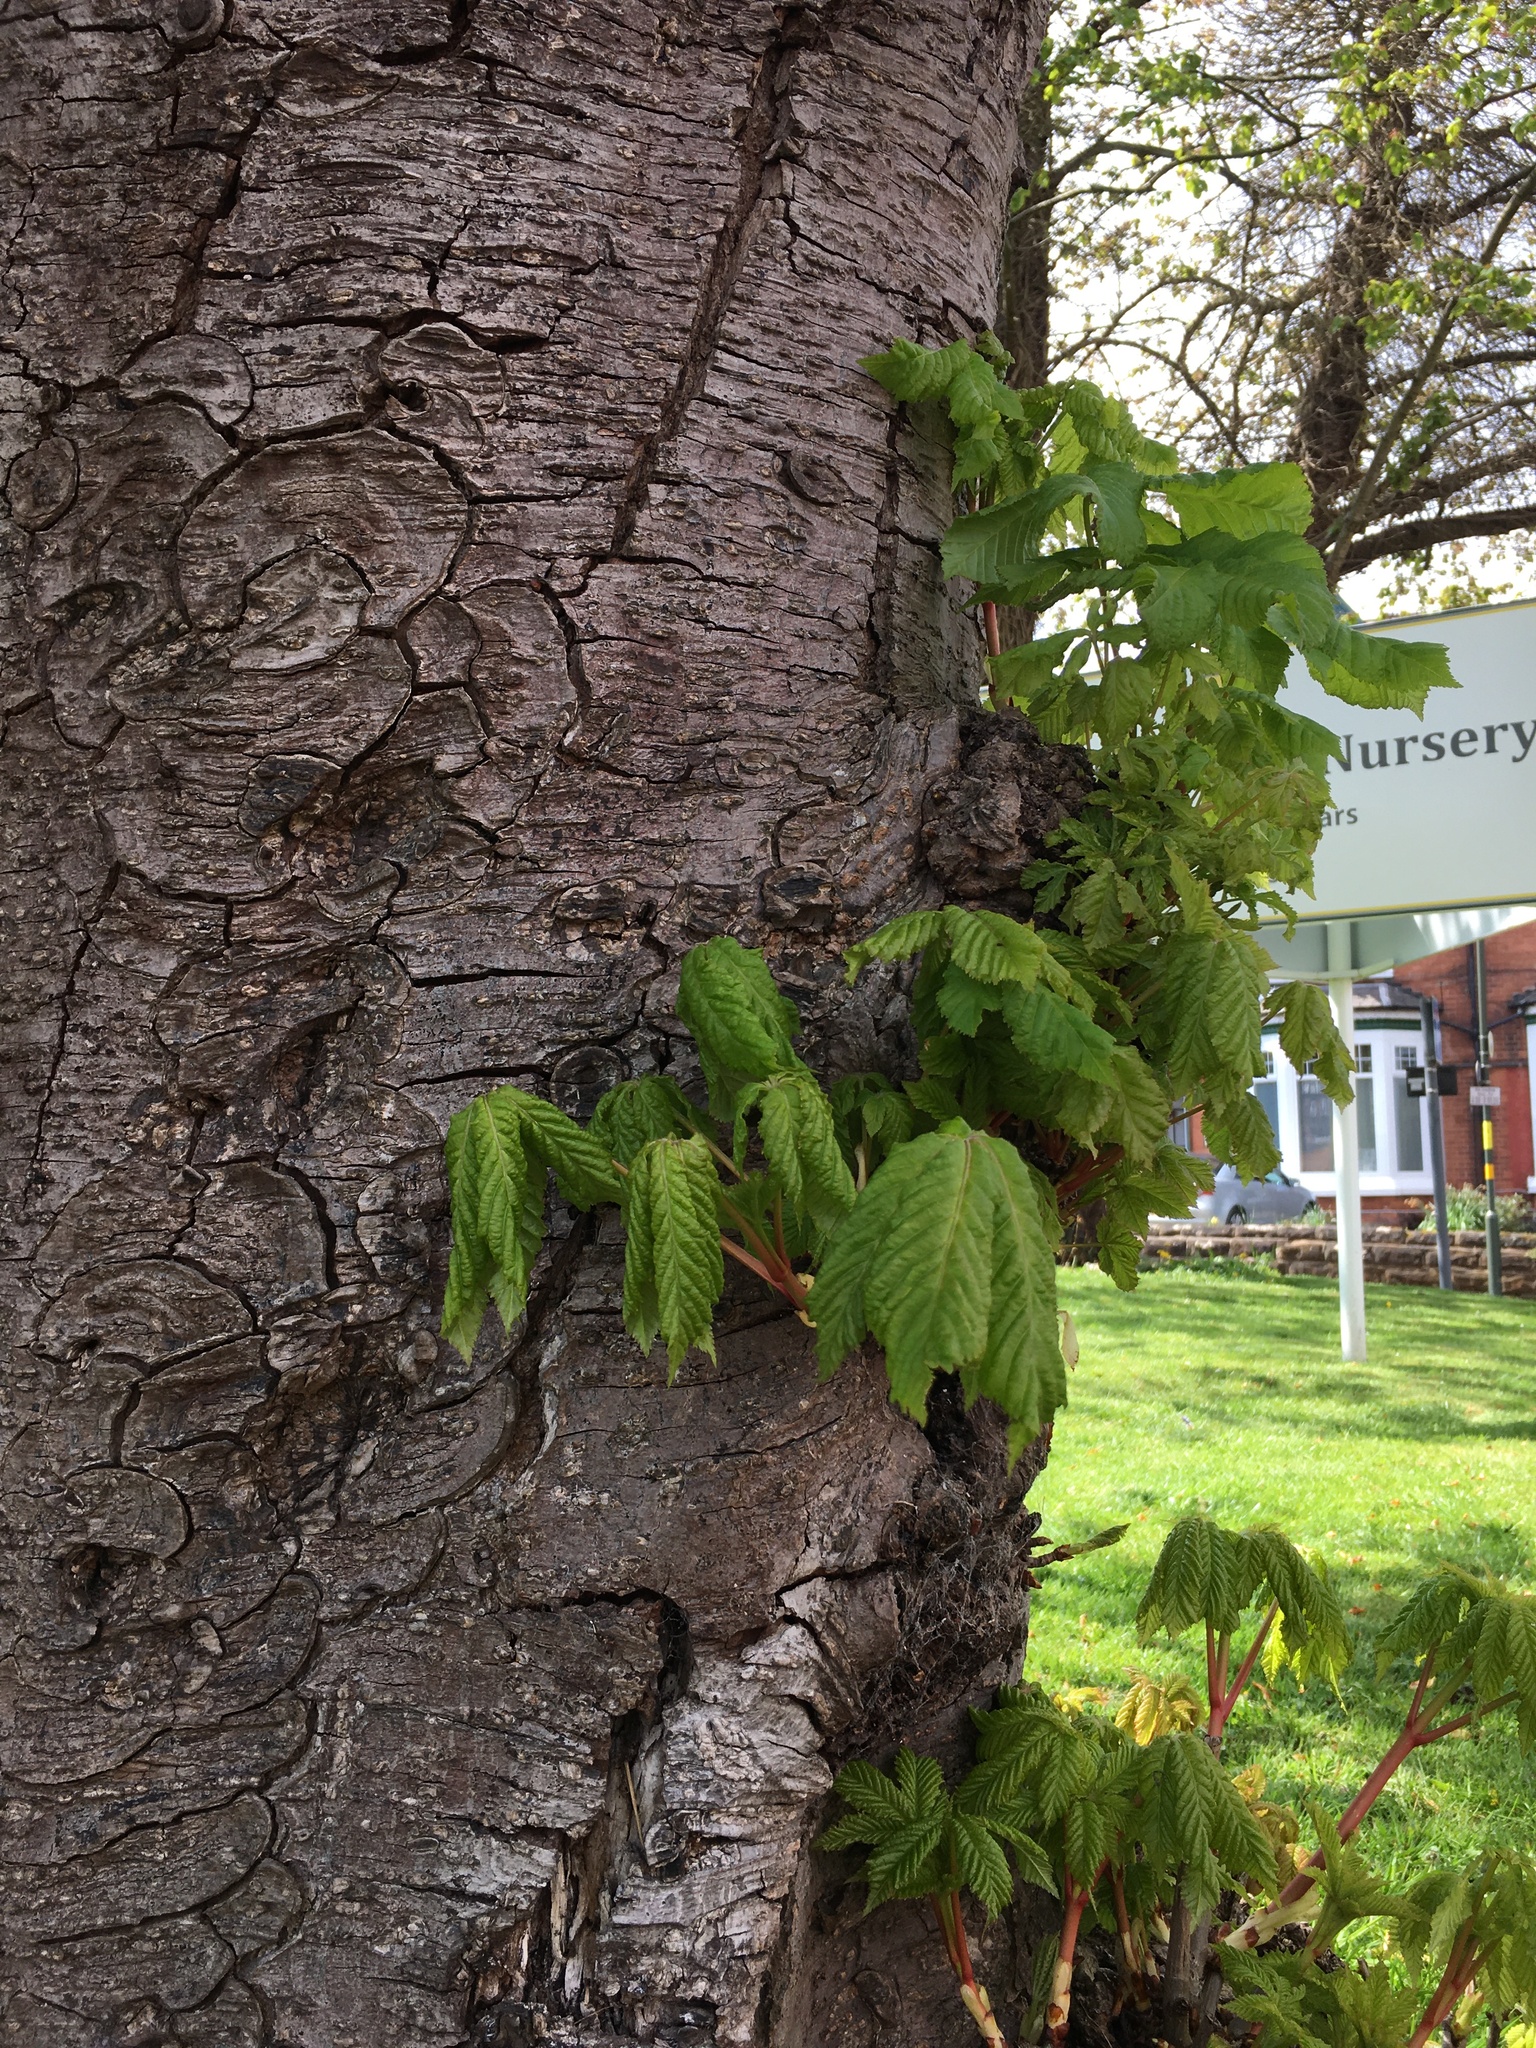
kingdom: Plantae
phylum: Tracheophyta
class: Magnoliopsida
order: Sapindales
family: Sapindaceae
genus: Aesculus
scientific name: Aesculus hippocastanum
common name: Horse-chestnut
